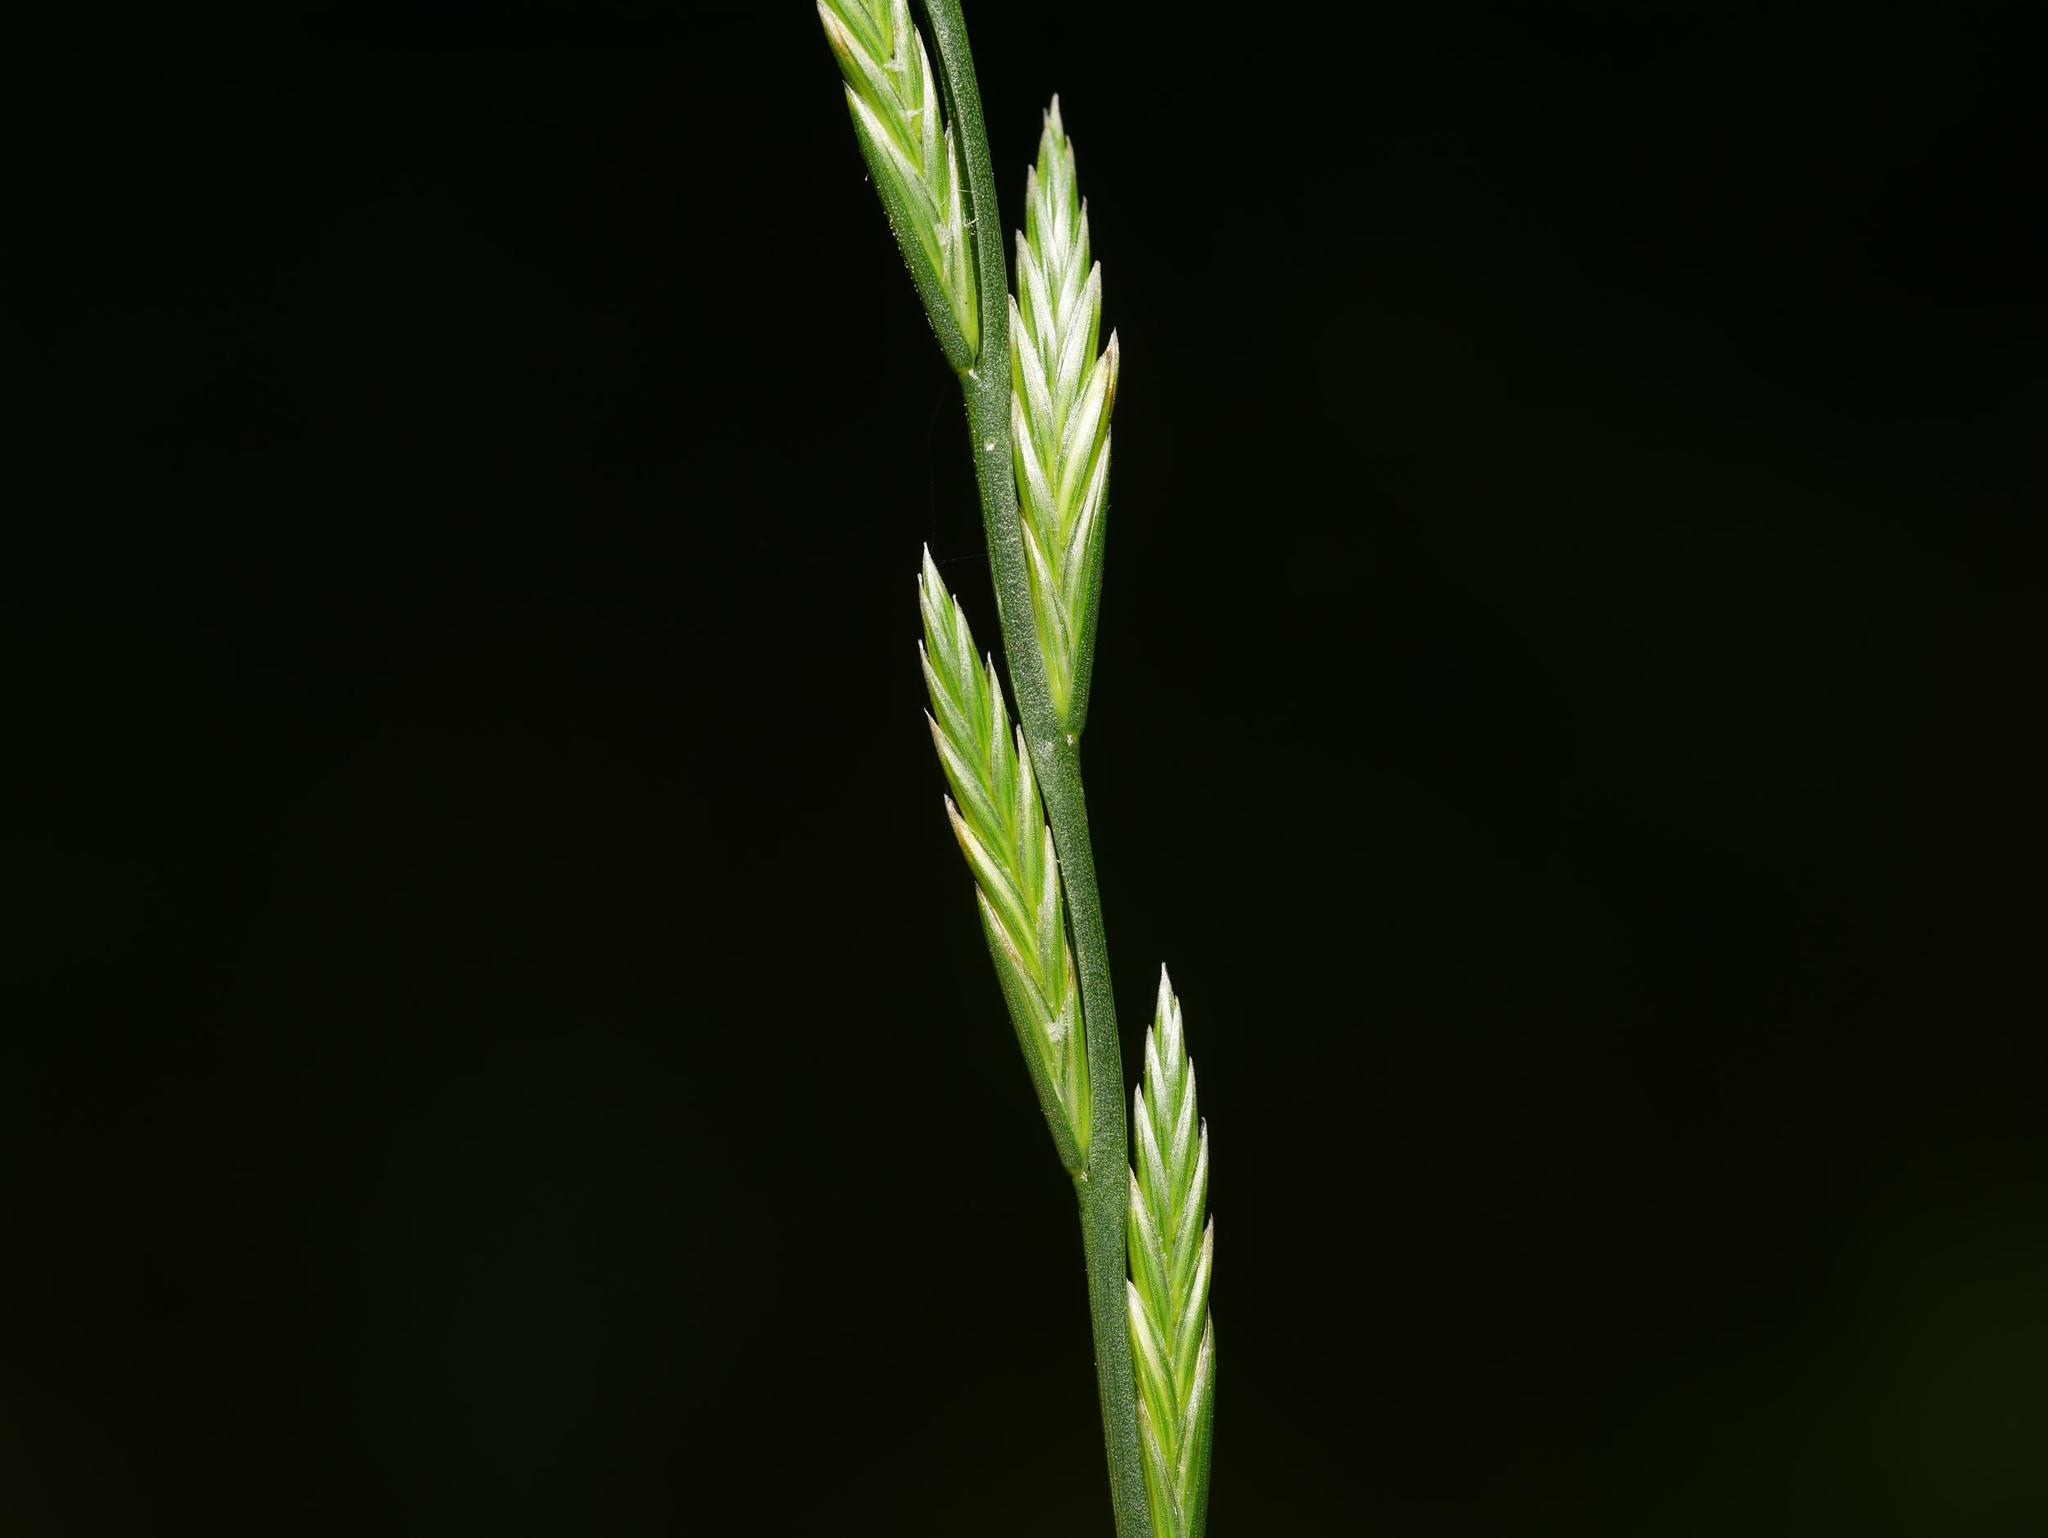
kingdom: Plantae
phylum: Tracheophyta
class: Liliopsida
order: Poales
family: Poaceae
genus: Lolium
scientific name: Lolium perenne
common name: Perennial ryegrass
